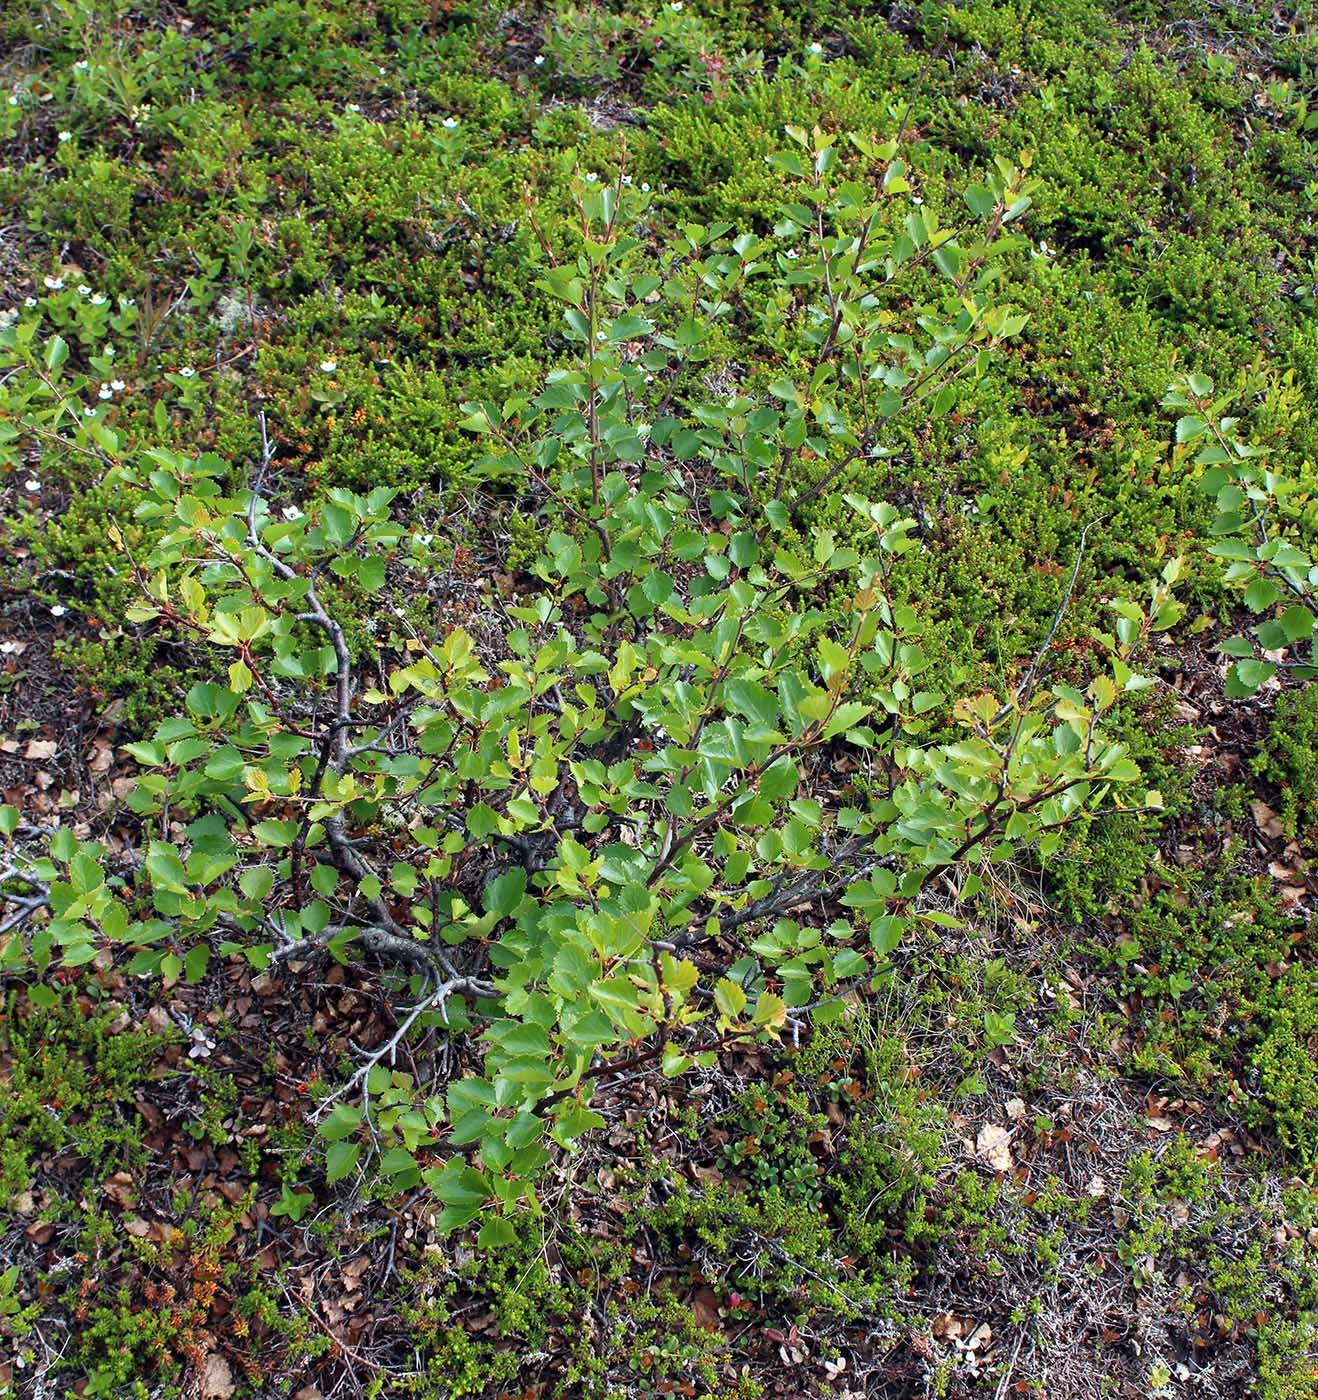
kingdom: Plantae
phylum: Tracheophyta
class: Magnoliopsida
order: Fagales
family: Betulaceae
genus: Betula
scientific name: Betula intermedia
